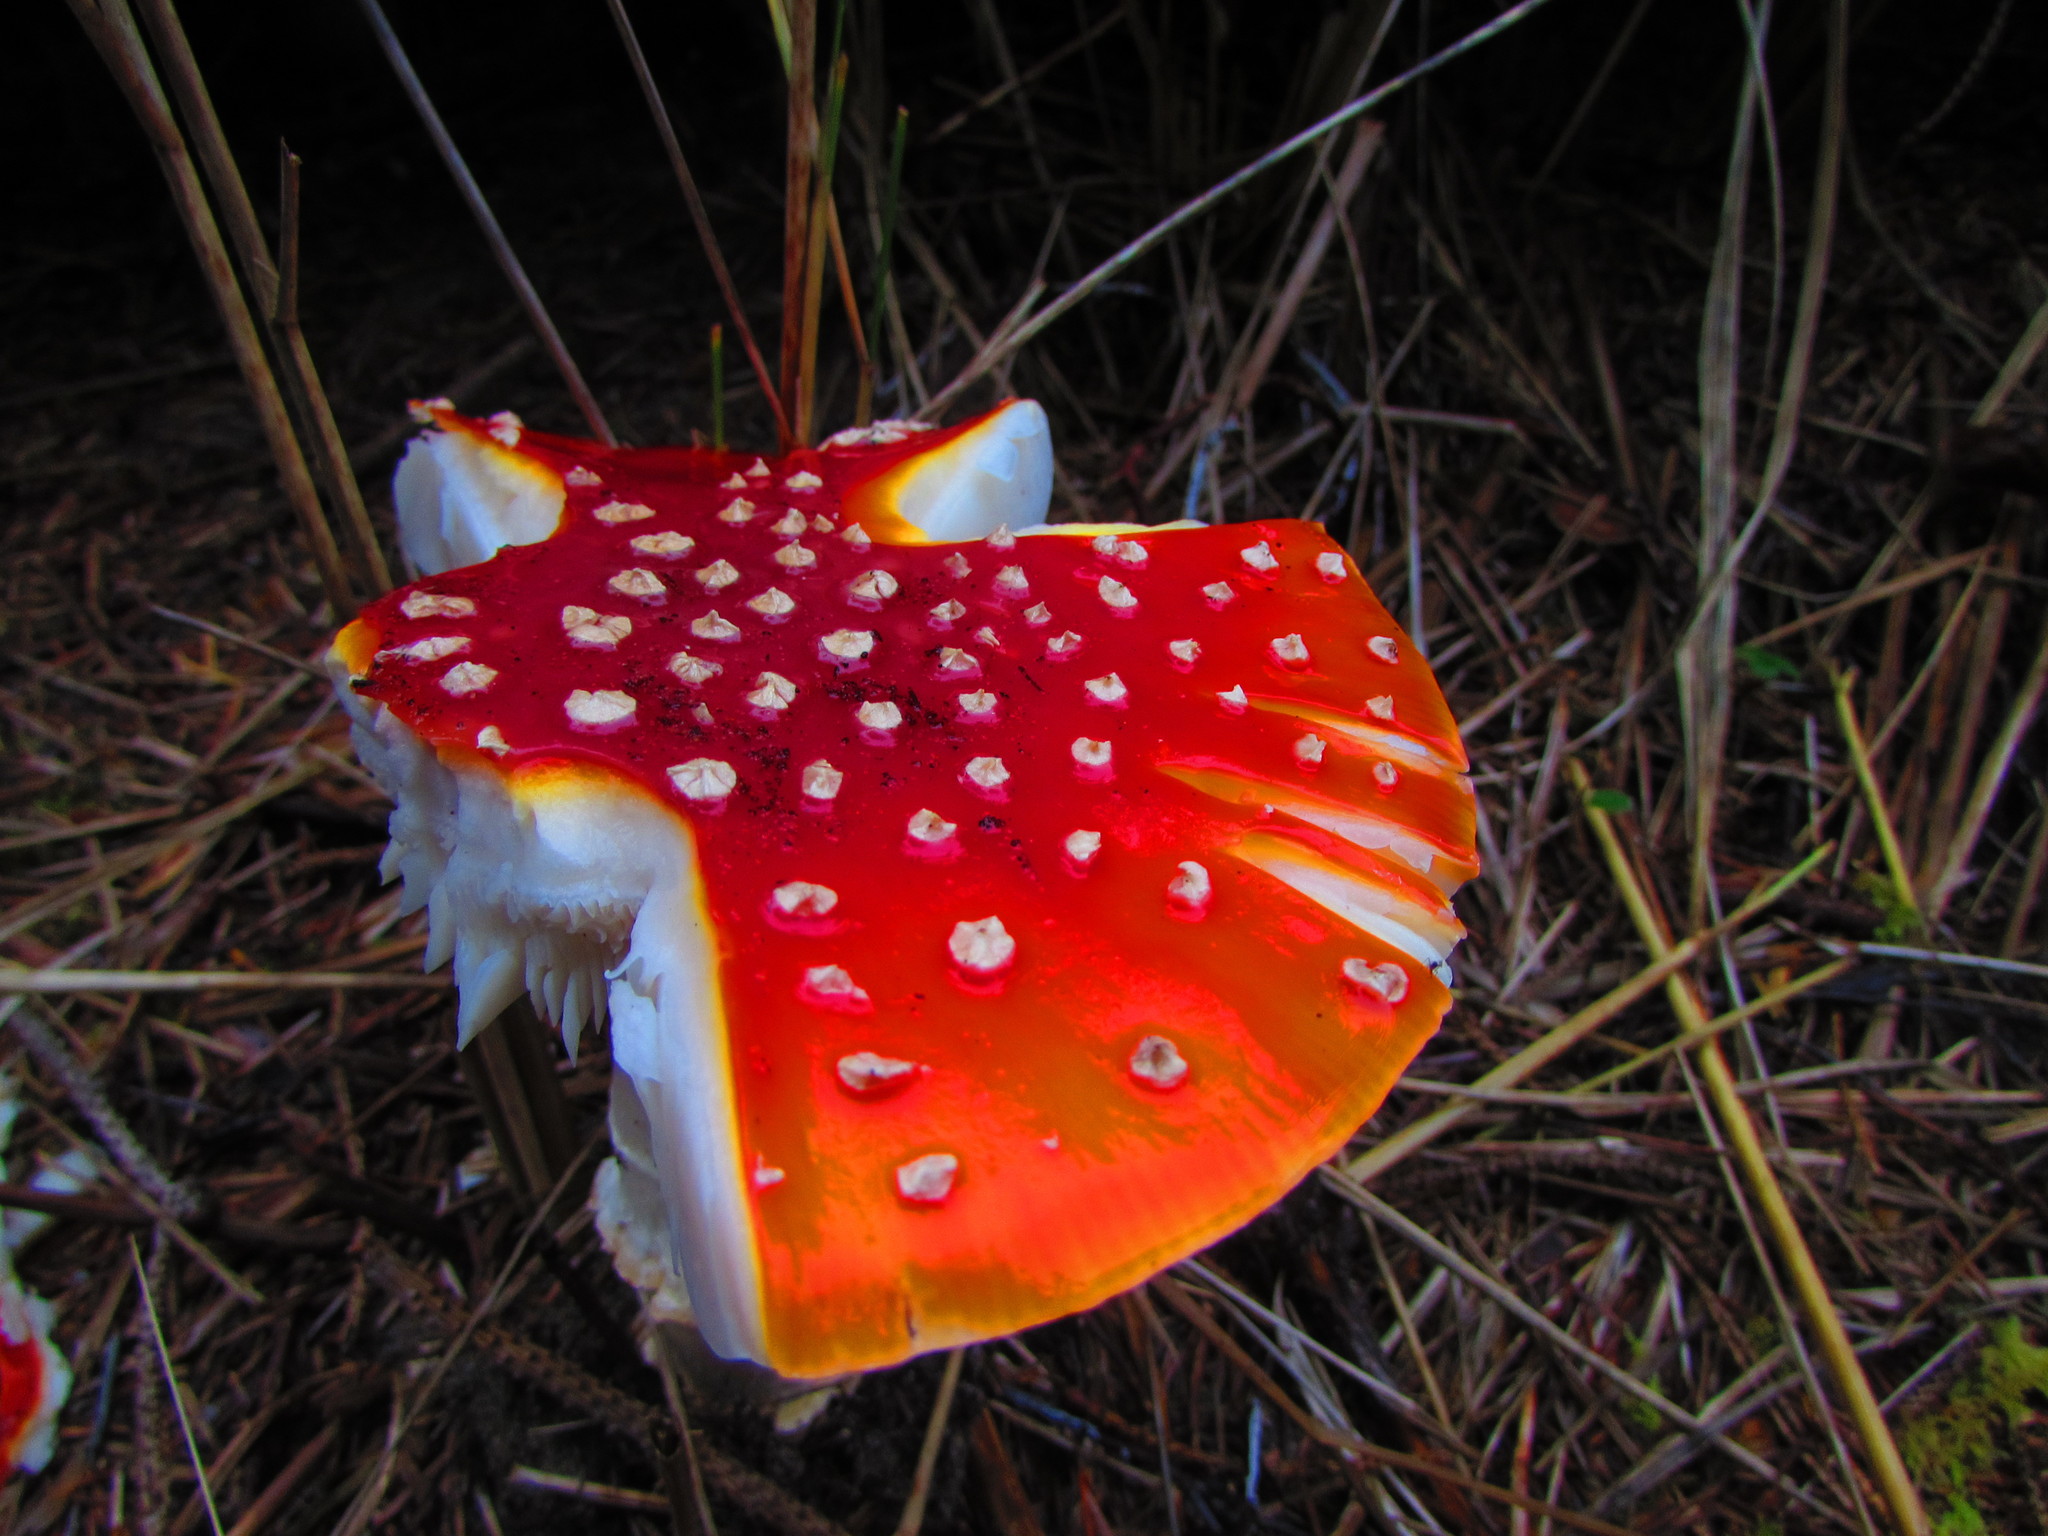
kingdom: Fungi
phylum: Basidiomycota
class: Agaricomycetes
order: Agaricales
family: Amanitaceae
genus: Amanita
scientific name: Amanita muscaria
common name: Fly agaric
